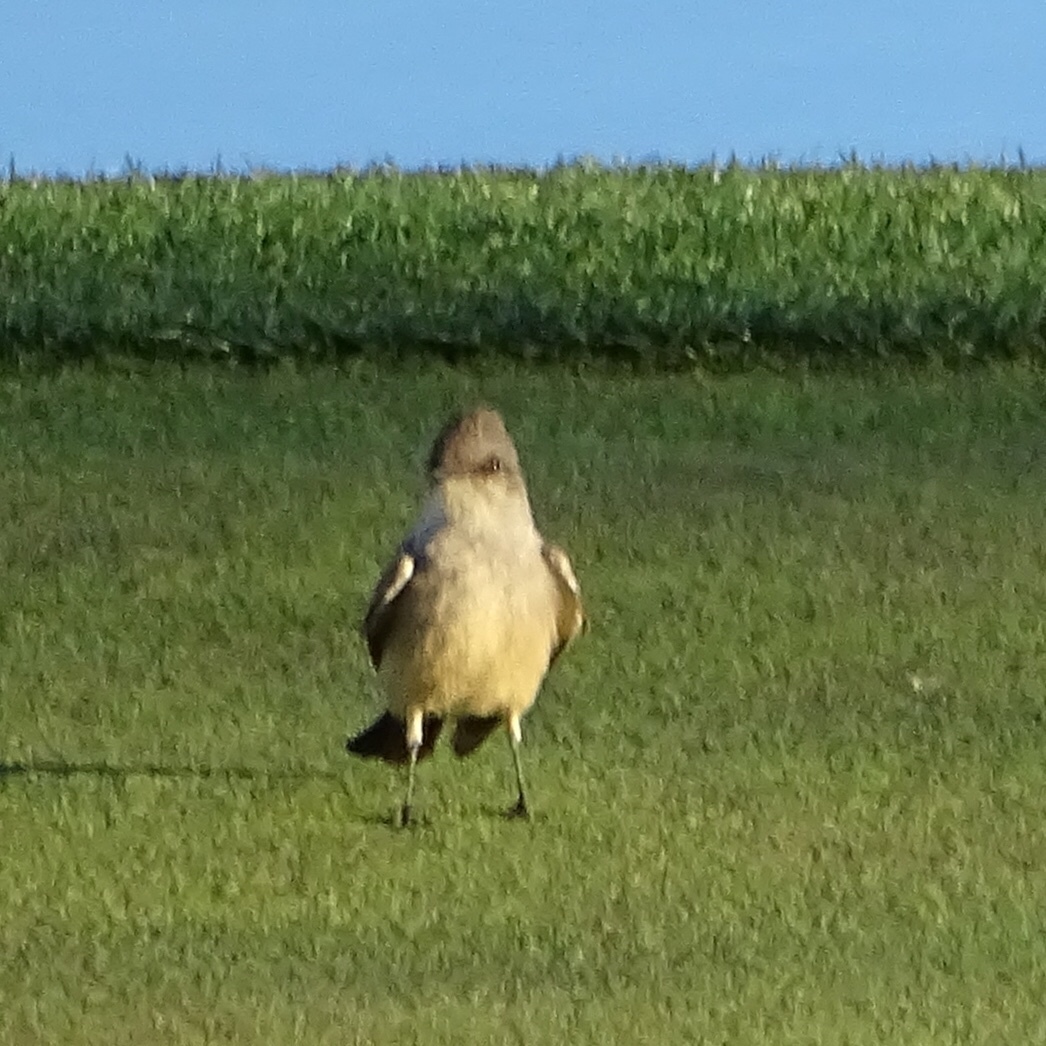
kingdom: Animalia
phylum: Chordata
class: Aves
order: Passeriformes
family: Tyrannidae
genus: Sayornis
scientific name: Sayornis saya
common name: Say's phoebe
